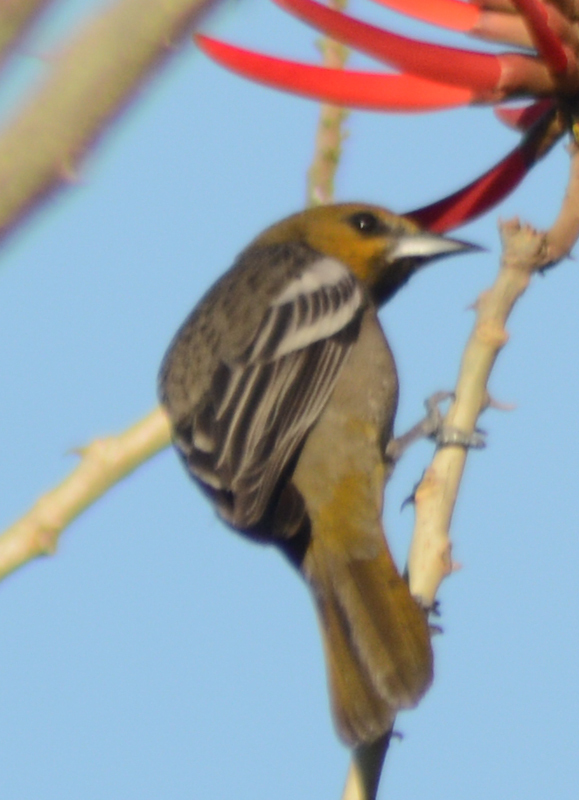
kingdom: Animalia
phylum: Chordata
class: Aves
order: Passeriformes
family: Icteridae
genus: Icterus
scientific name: Icterus bullockii
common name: Bullock's oriole
